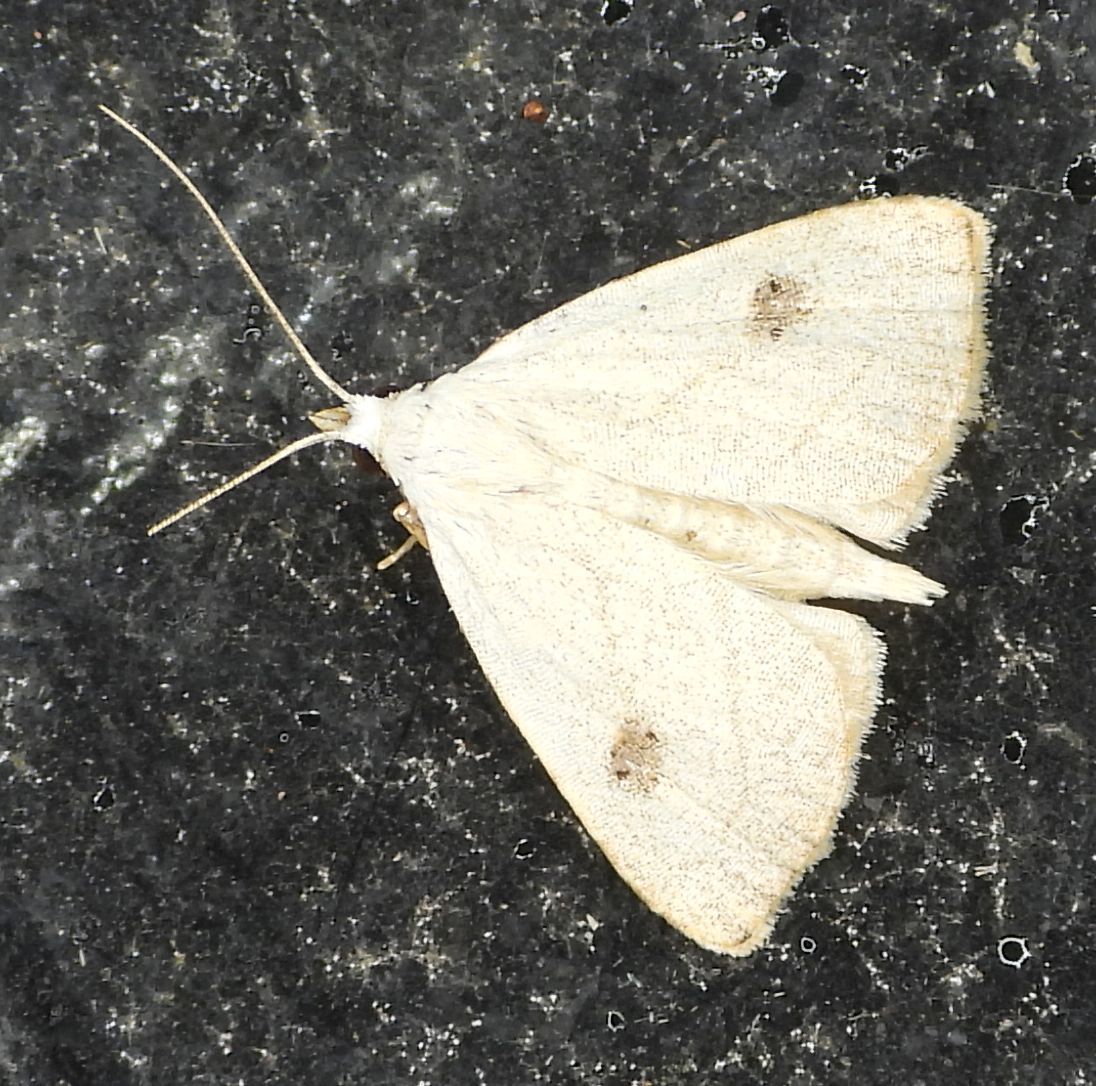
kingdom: Animalia
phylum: Arthropoda
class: Insecta
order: Lepidoptera
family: Erebidae
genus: Rivula
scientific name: Rivula propinqualis
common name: Spotted grass moth
